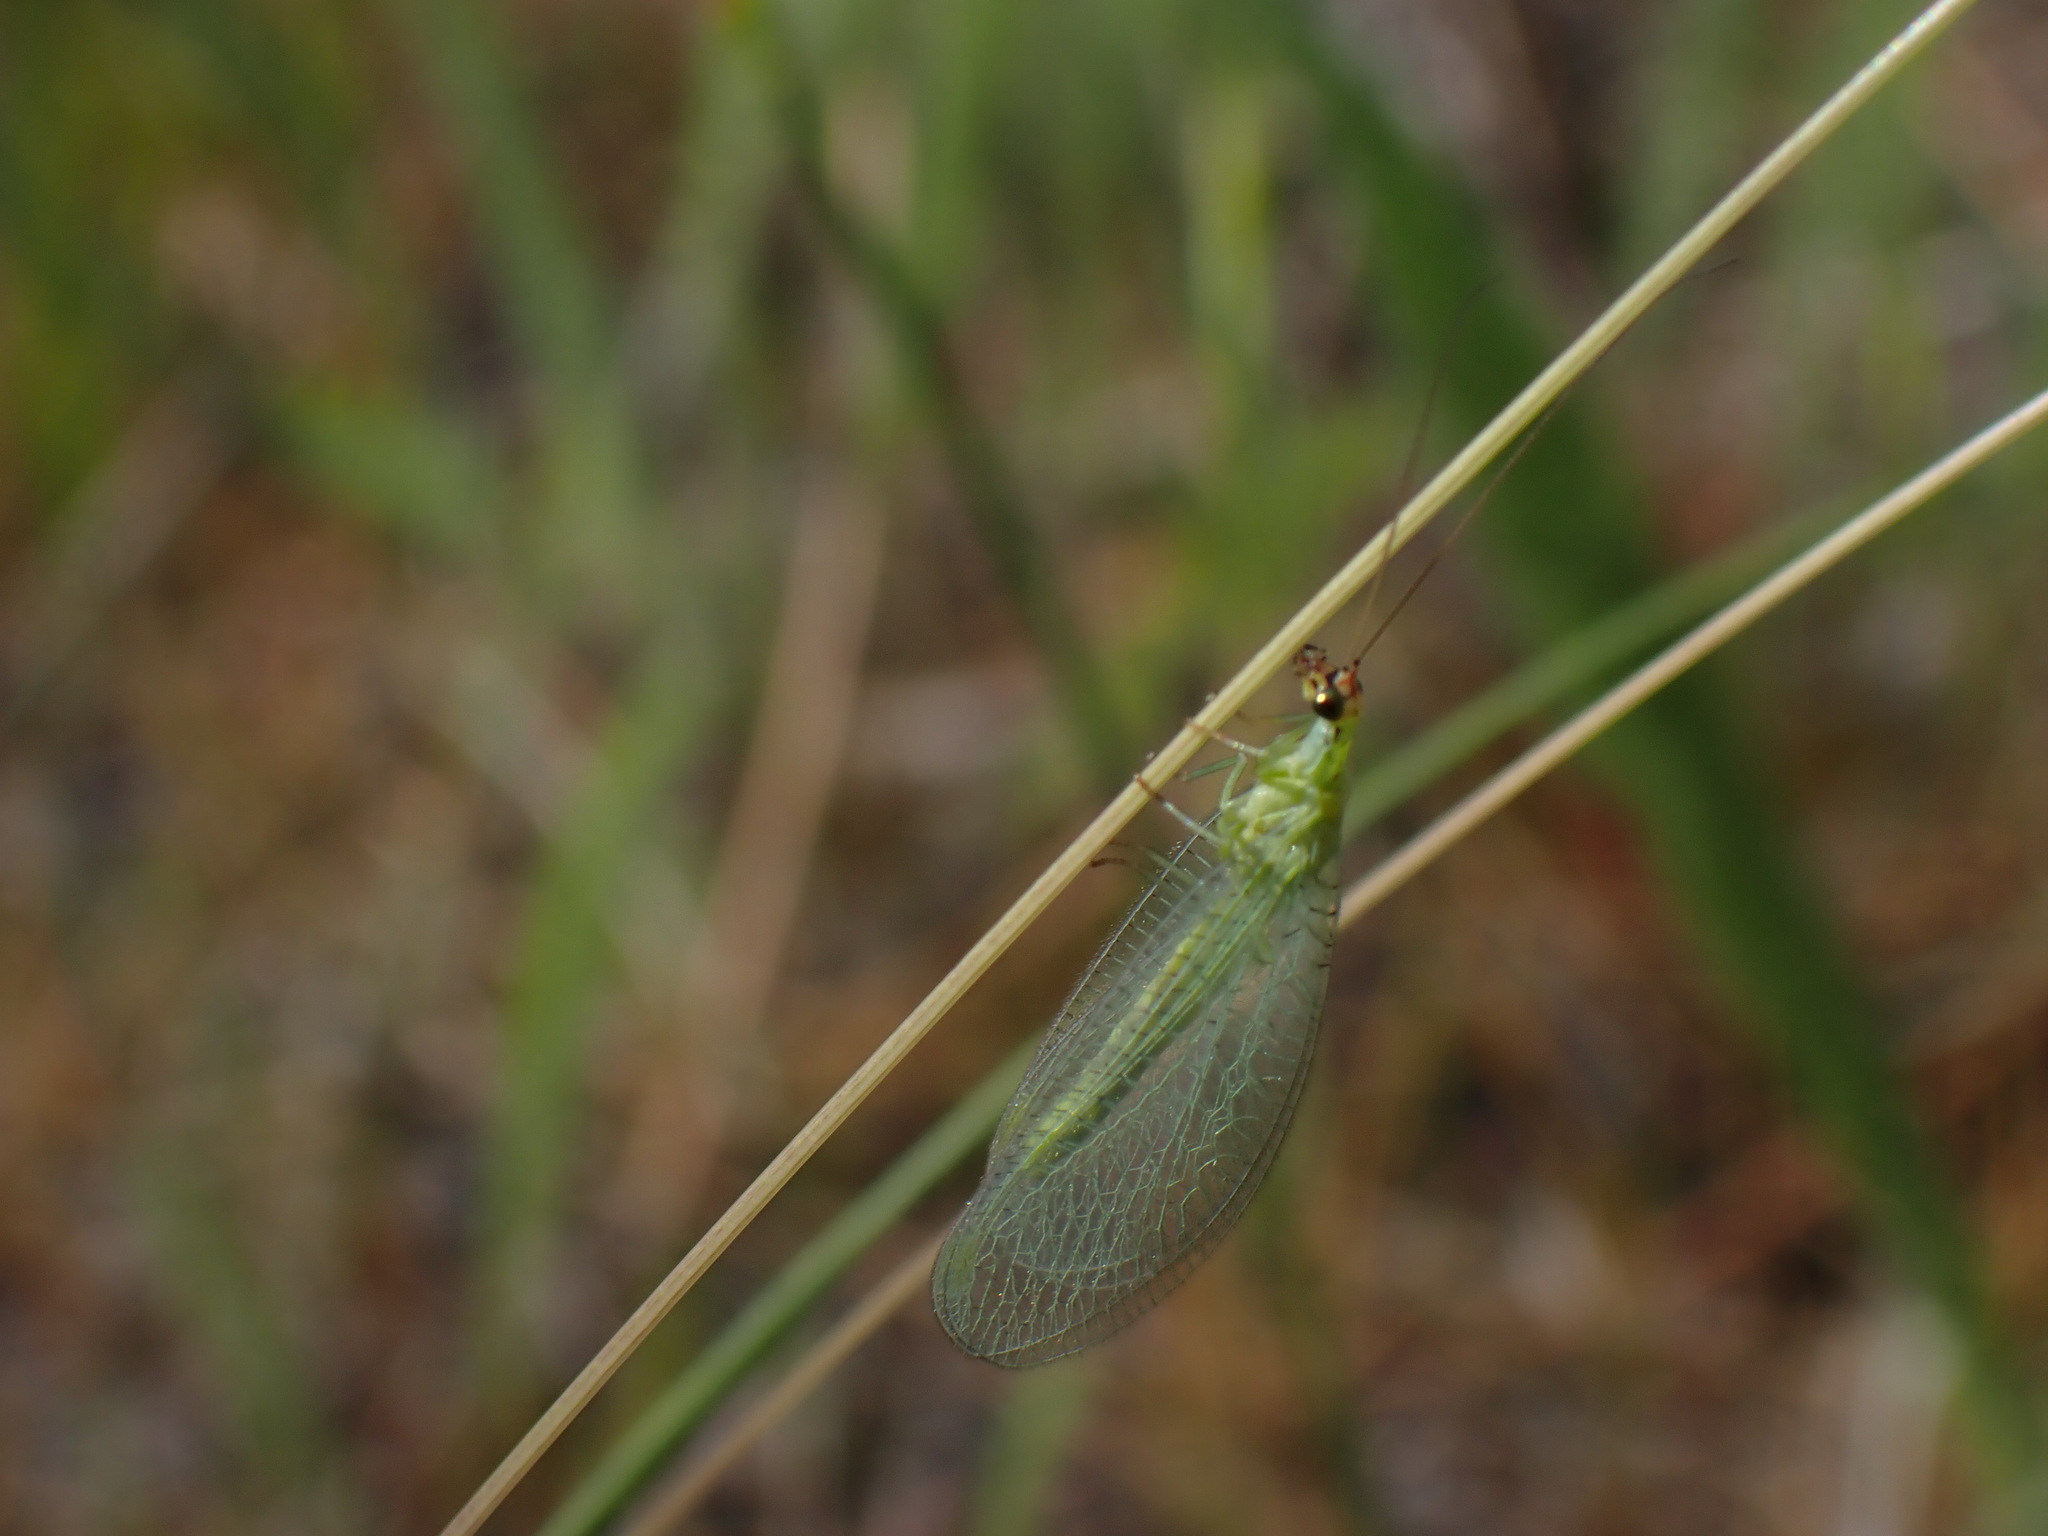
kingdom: Animalia
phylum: Arthropoda
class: Insecta
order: Neuroptera
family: Chrysopidae
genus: Chrysopa
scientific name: Chrysopa oculata
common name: Golden-eyed lacewing
